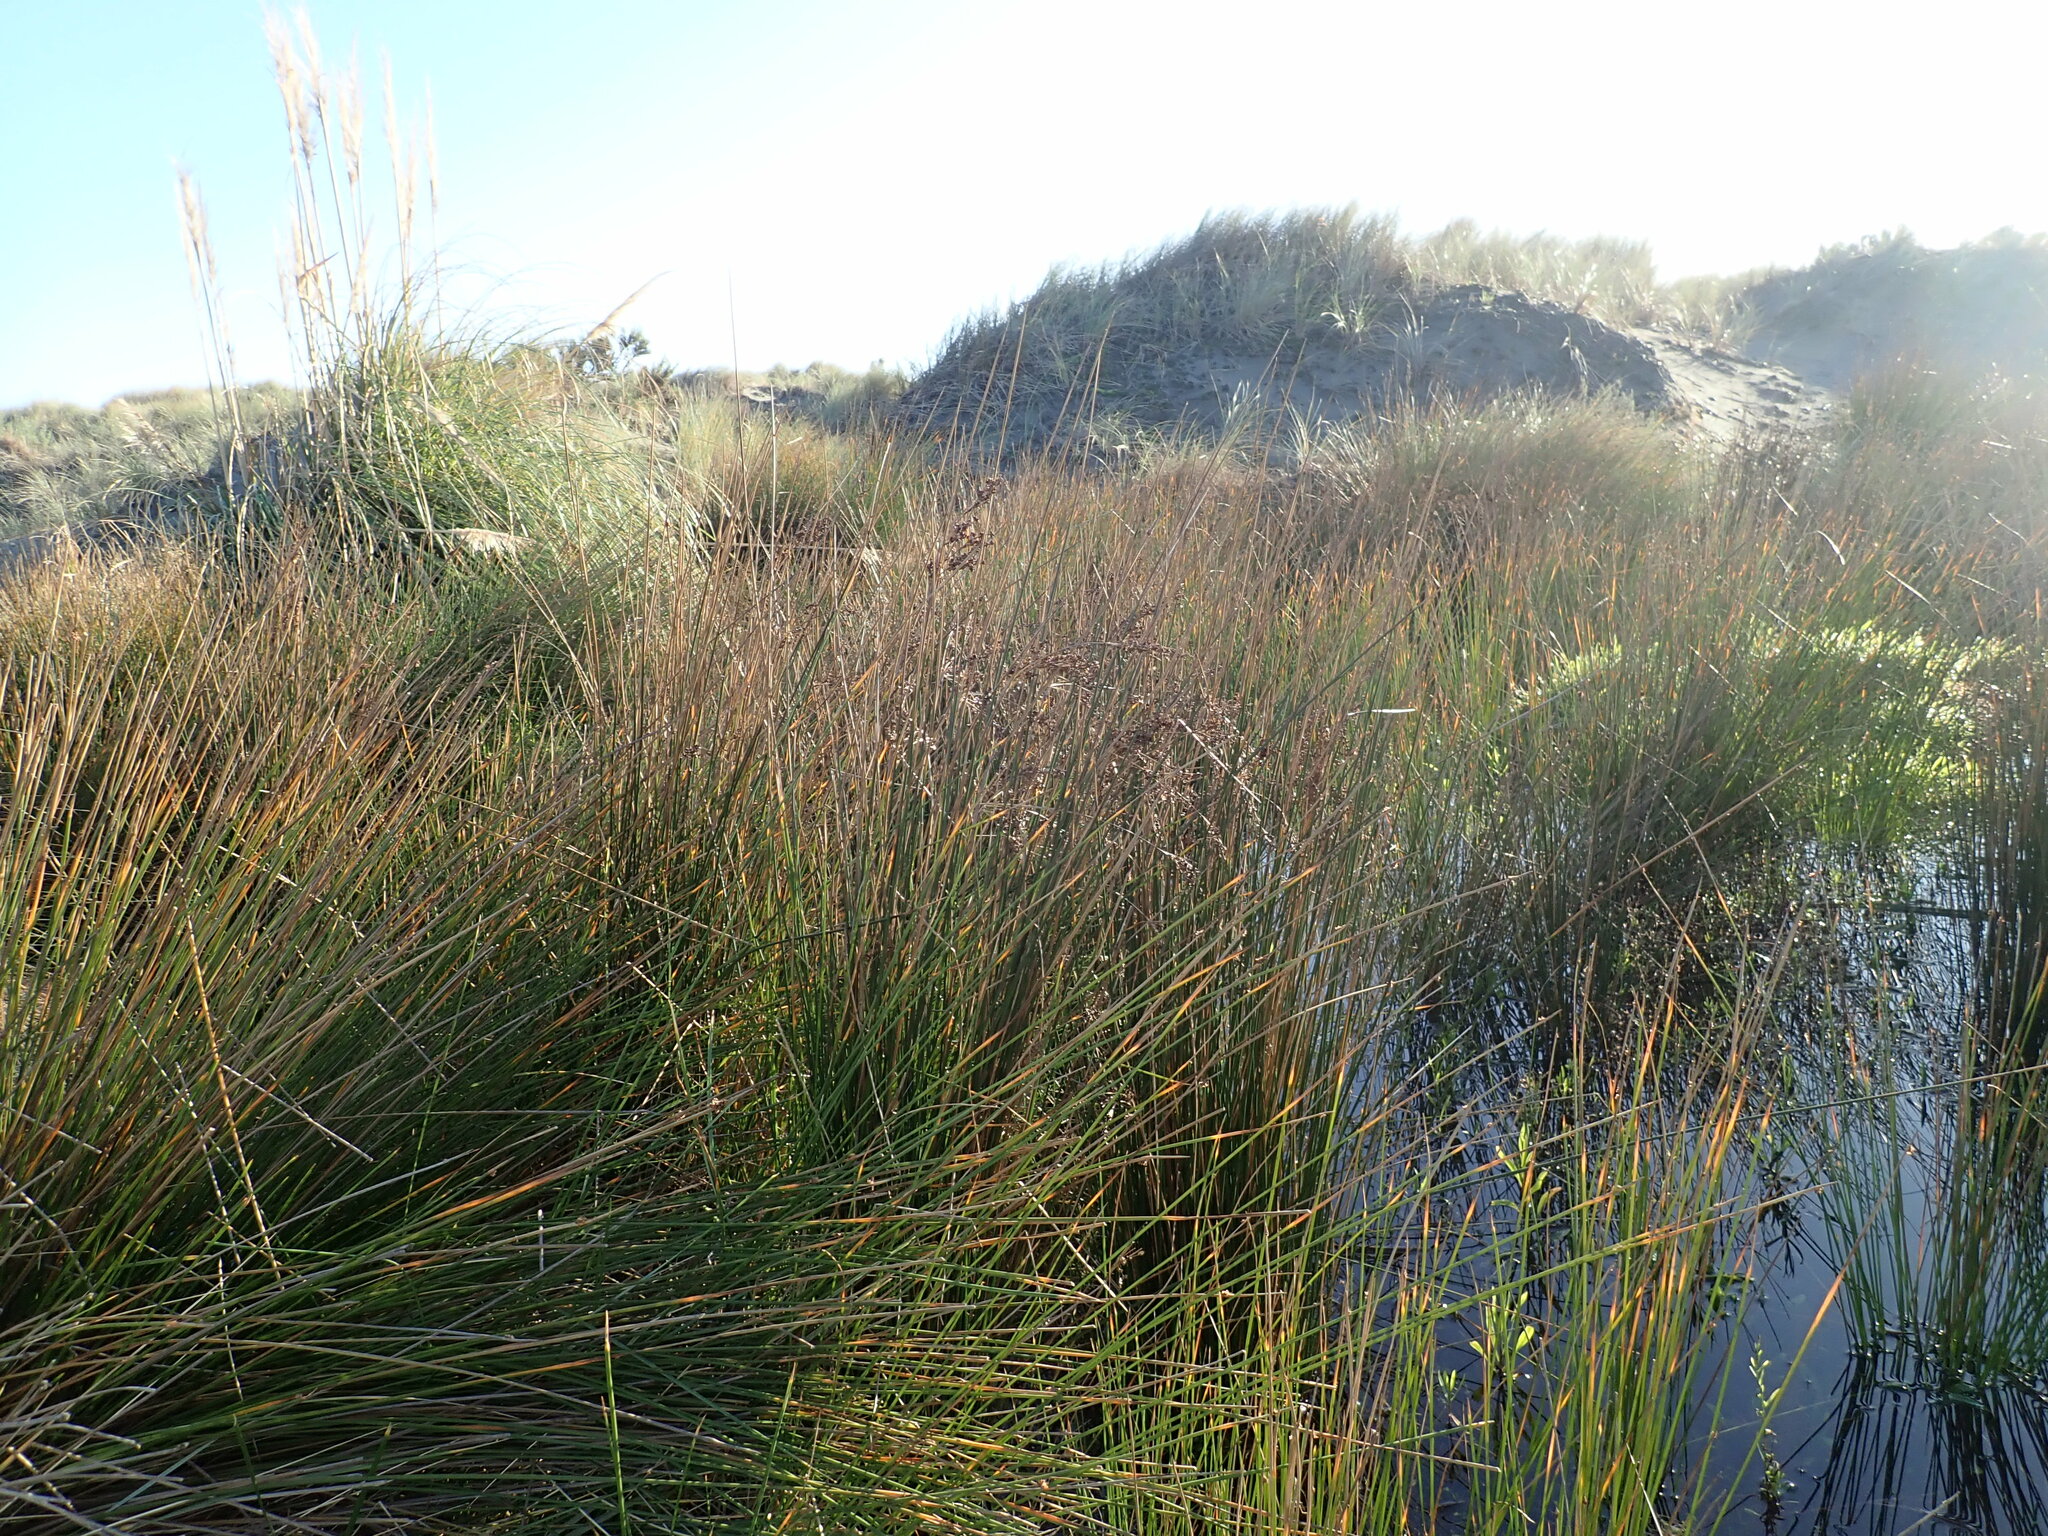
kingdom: Plantae
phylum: Tracheophyta
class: Liliopsida
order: Poales
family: Juncaceae
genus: Juncus
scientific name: Juncus kraussii
